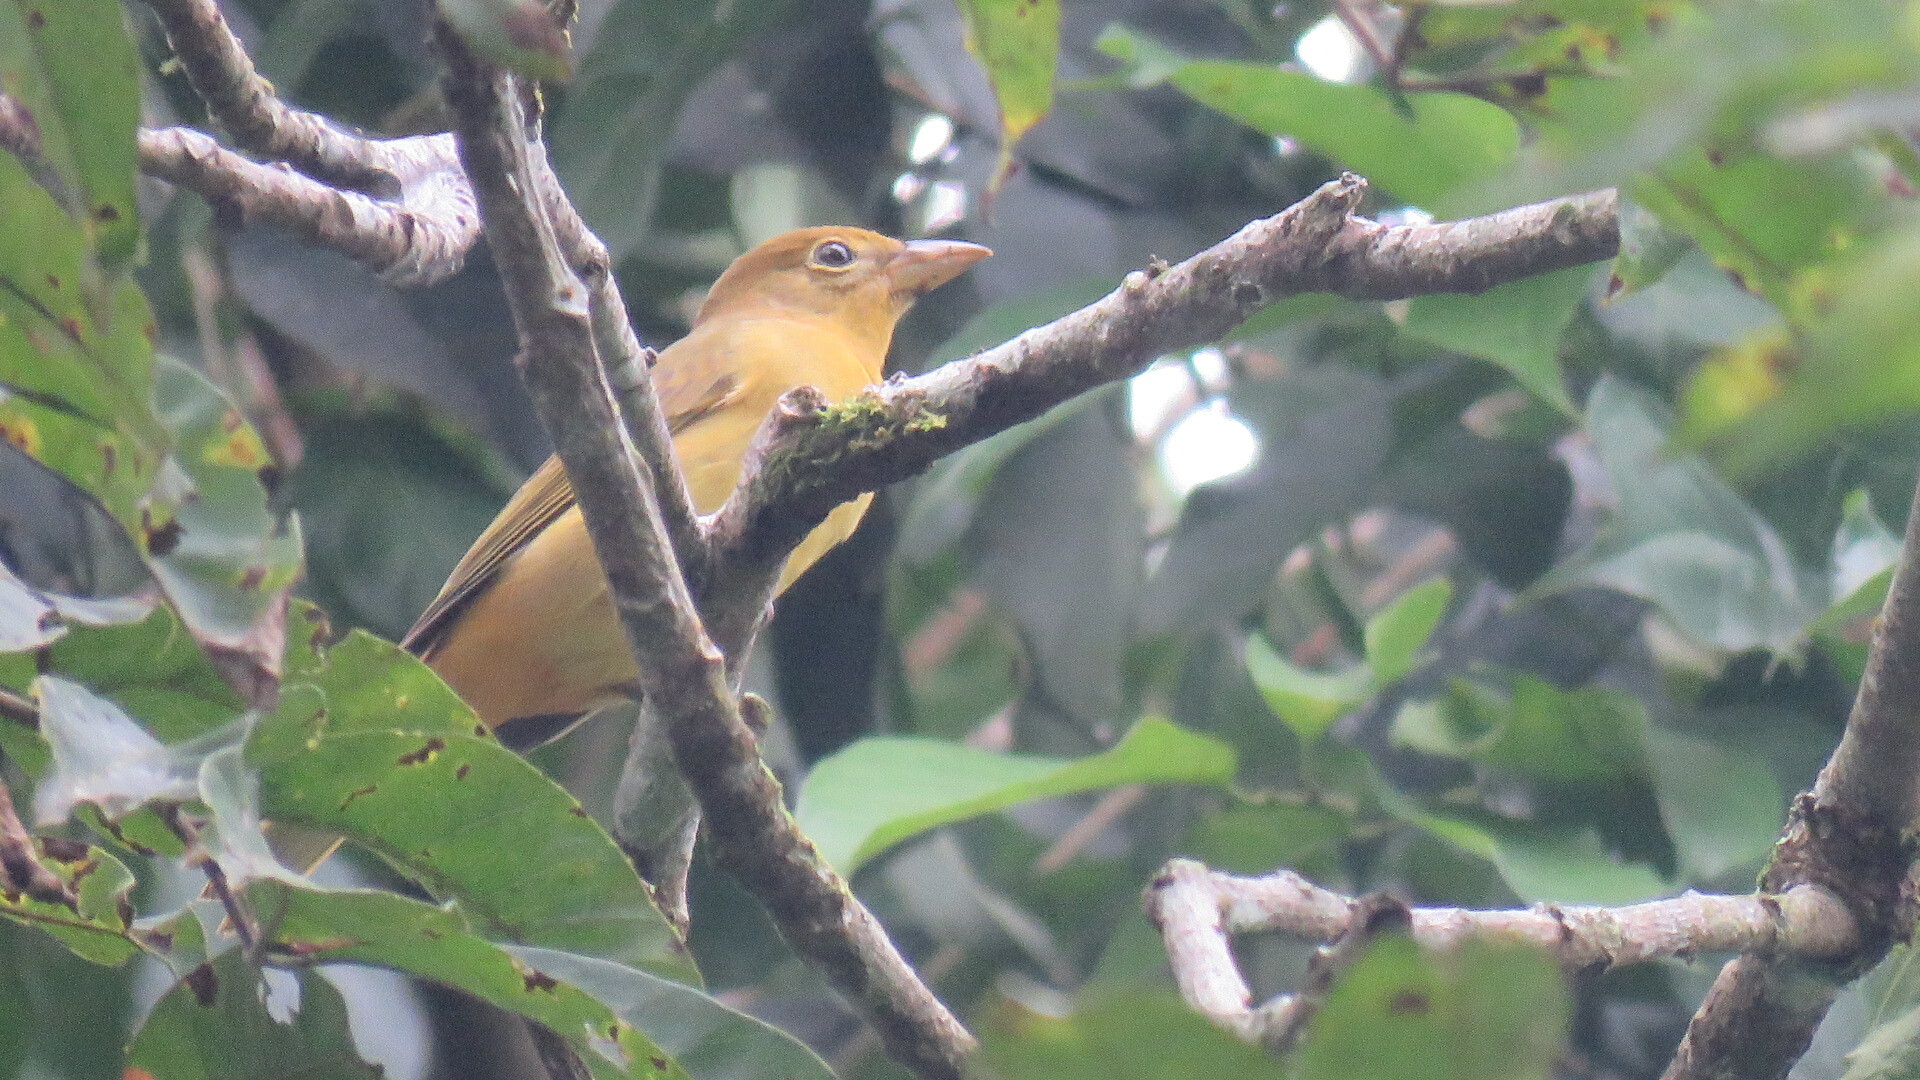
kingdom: Animalia
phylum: Chordata
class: Aves
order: Passeriformes
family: Cardinalidae
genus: Piranga
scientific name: Piranga rubra
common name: Summer tanager
